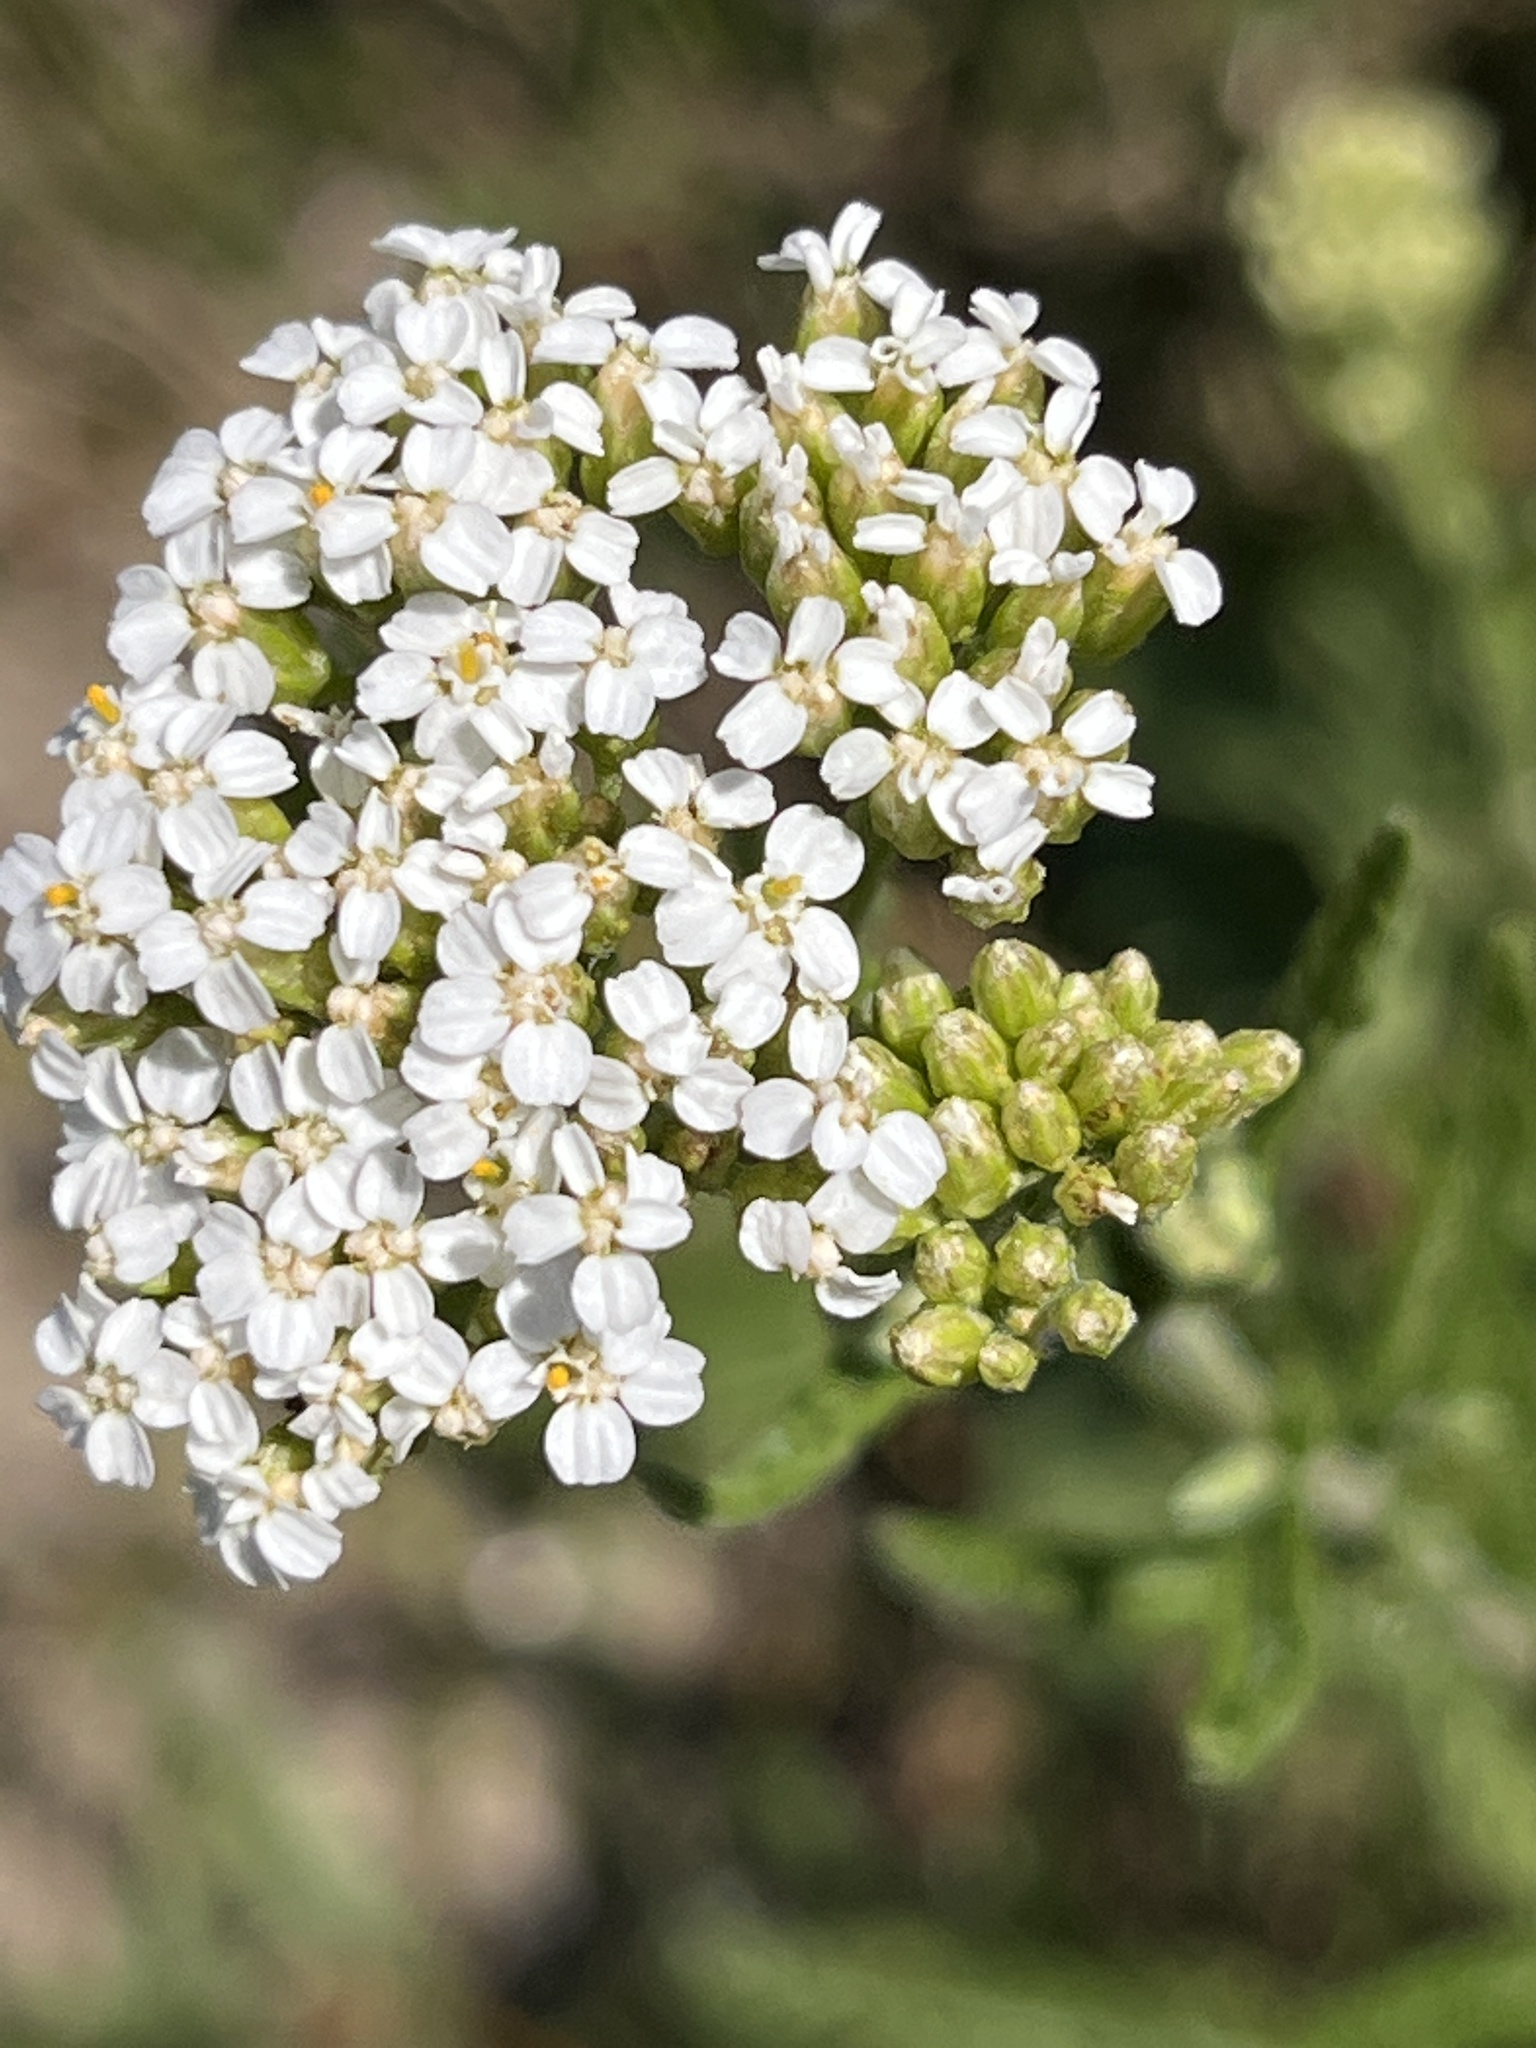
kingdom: Plantae
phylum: Tracheophyta
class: Magnoliopsida
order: Asterales
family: Asteraceae
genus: Achillea
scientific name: Achillea millefolium
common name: Yarrow
